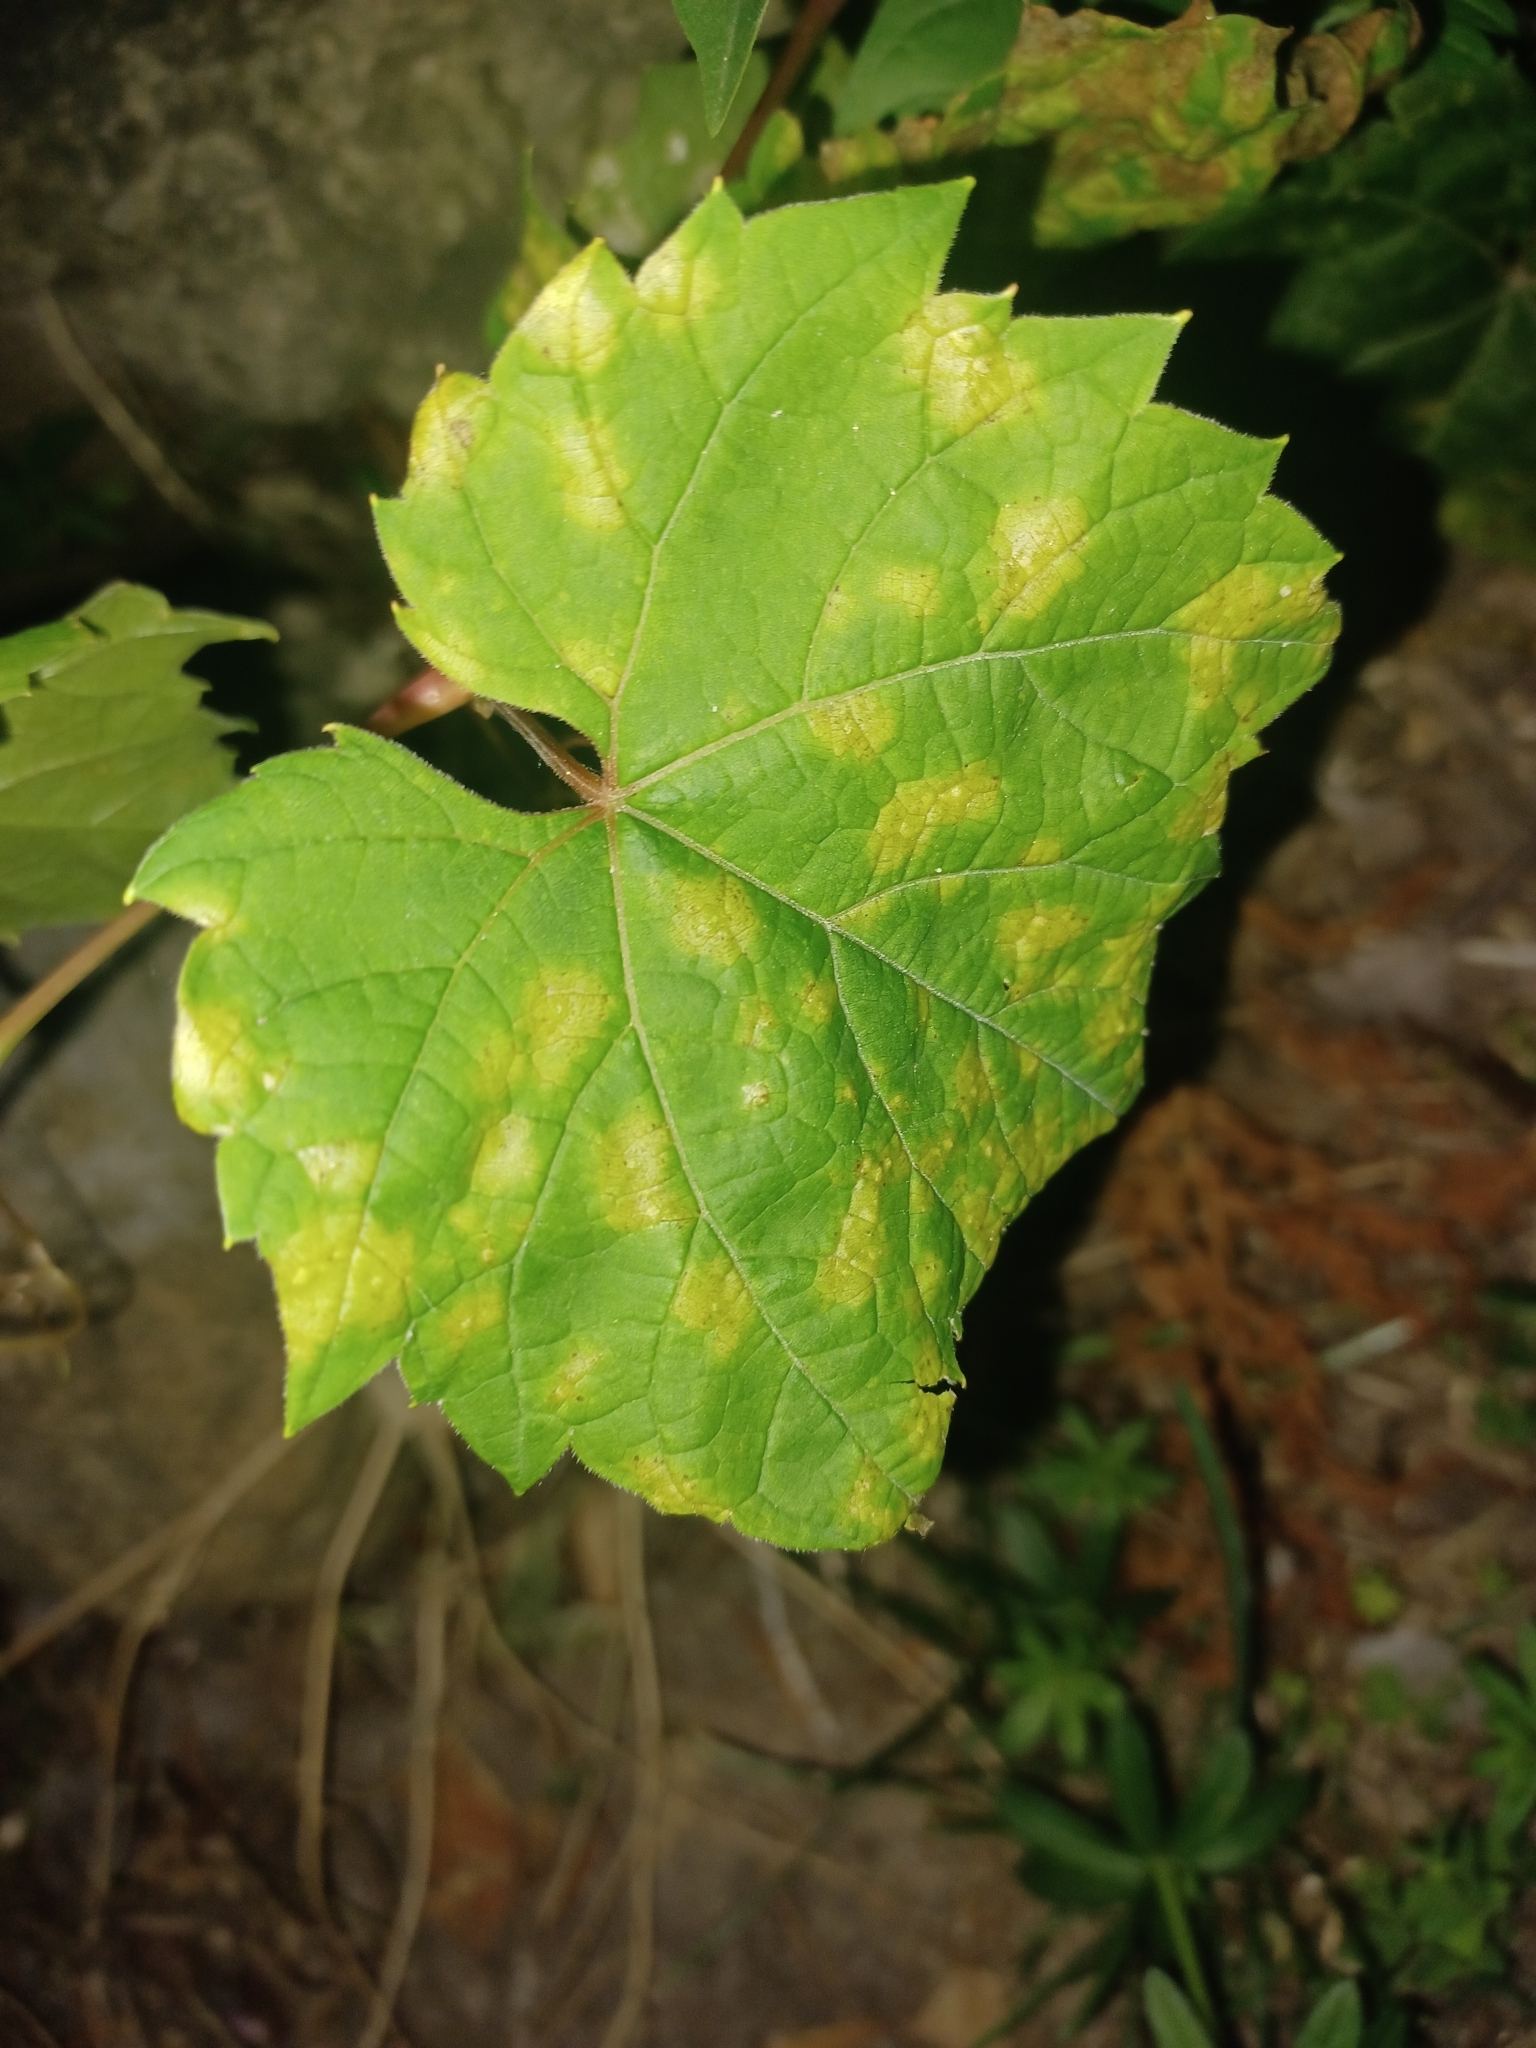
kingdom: Chromista
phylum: Oomycota
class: Peronosporea
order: Peronosporales
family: Peronosporaceae
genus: Plasmopara
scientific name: Plasmopara viticola
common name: Grapevine downy mildew
